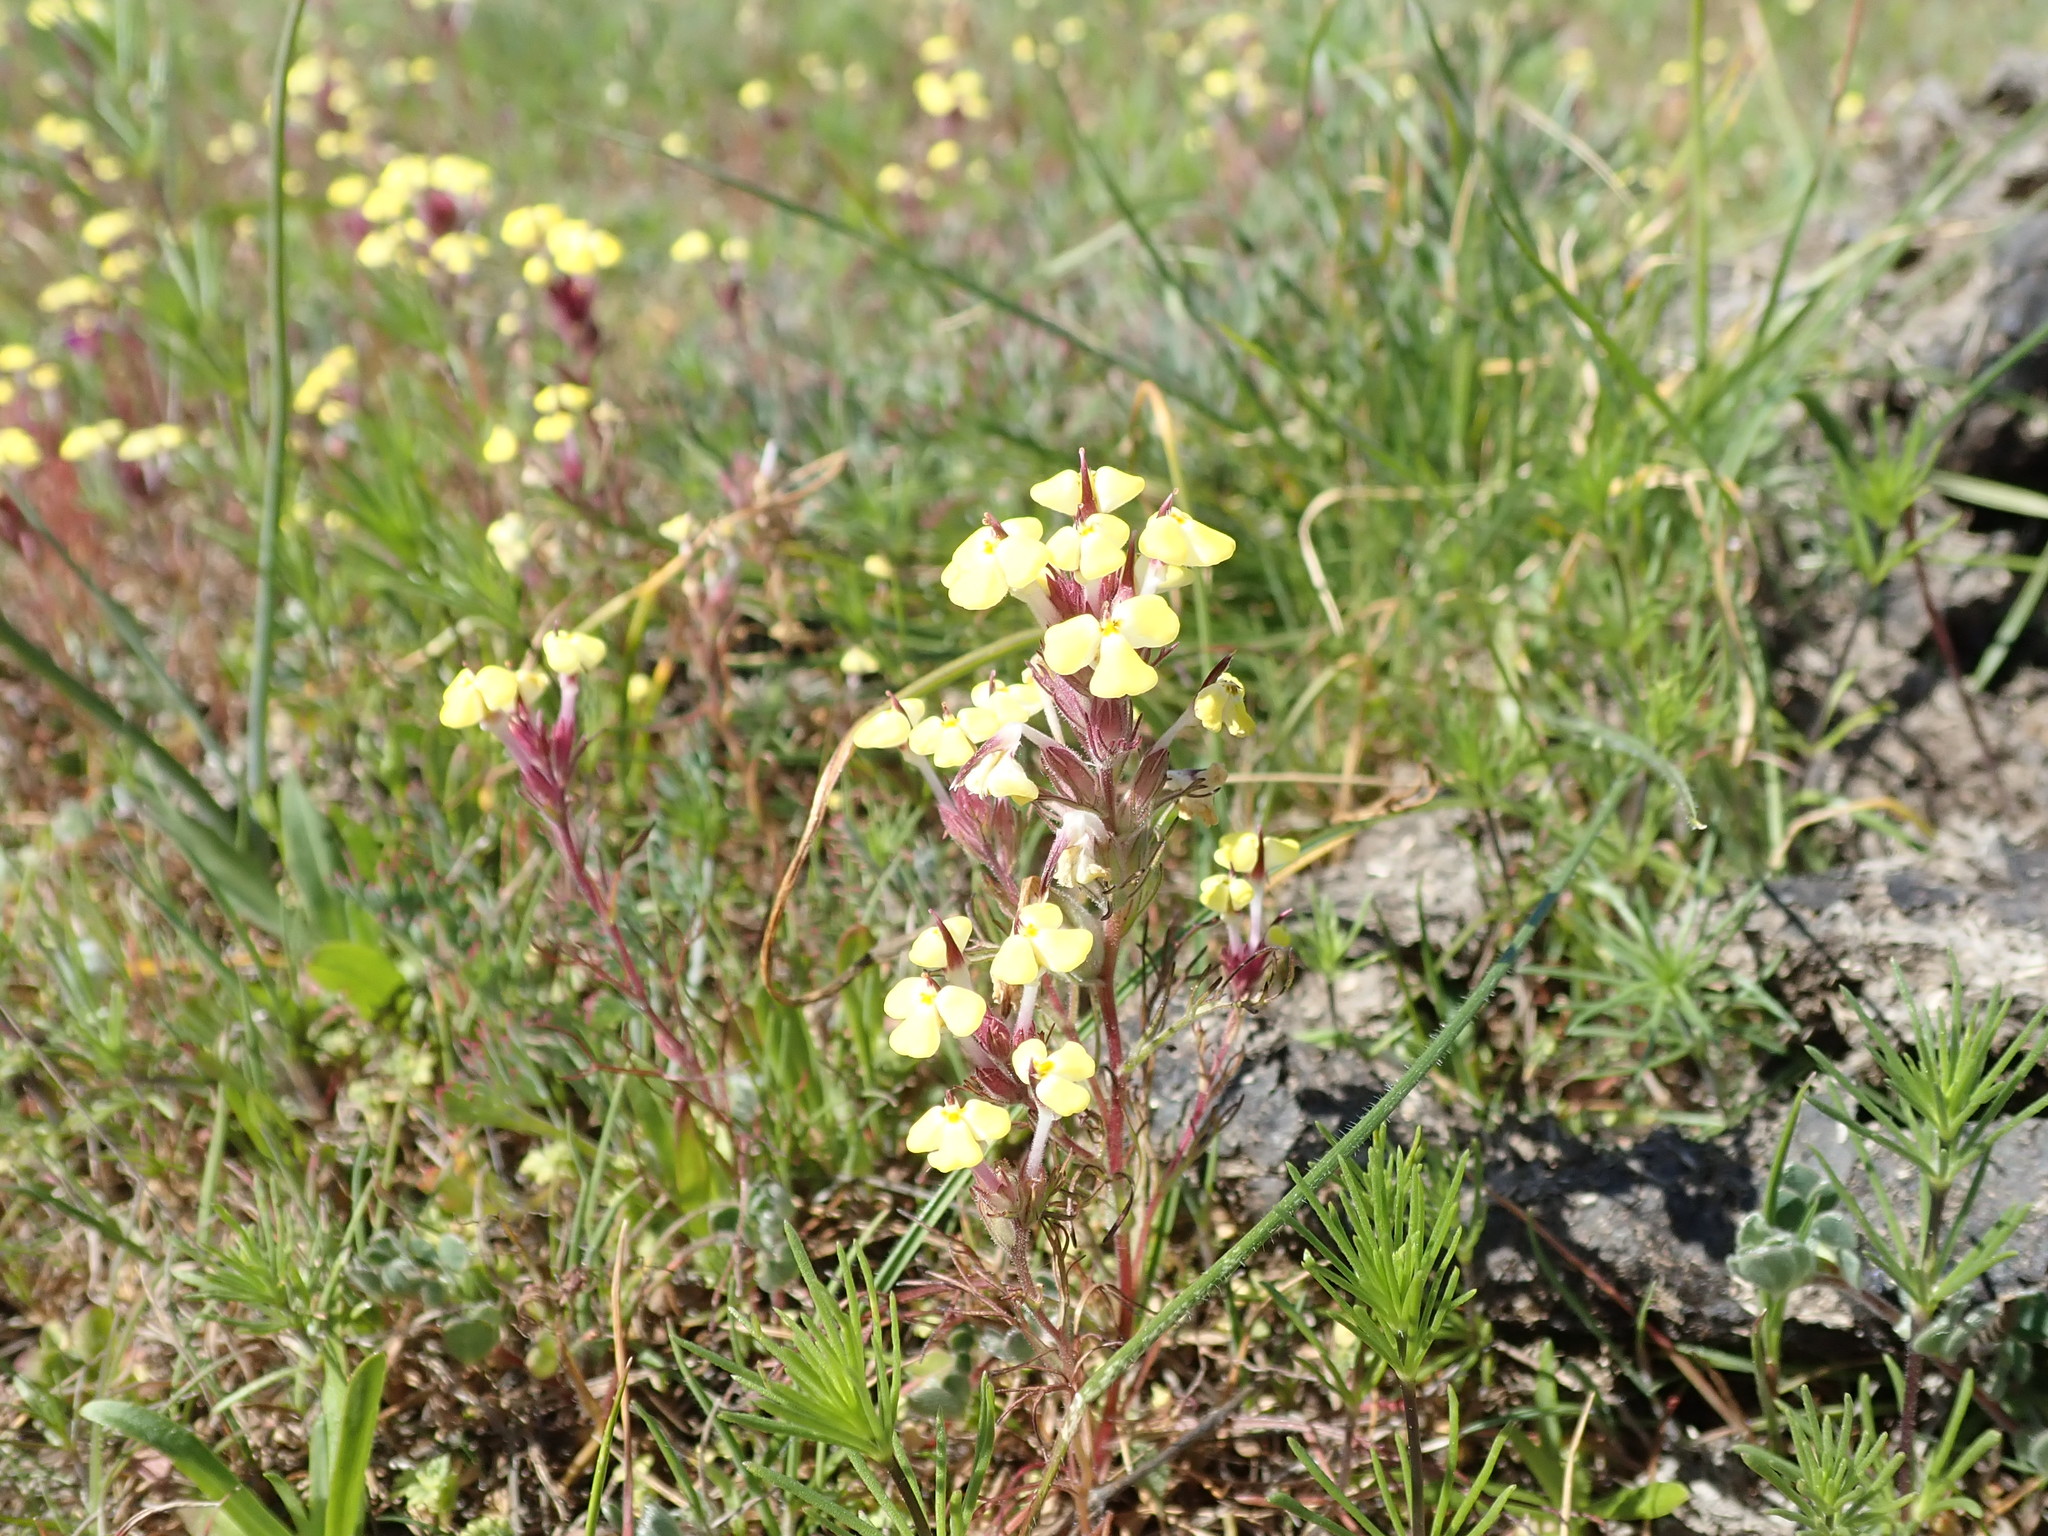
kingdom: Plantae
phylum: Tracheophyta
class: Magnoliopsida
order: Lamiales
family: Orobanchaceae
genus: Triphysaria
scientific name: Triphysaria eriantha
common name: Johnny-tuck
